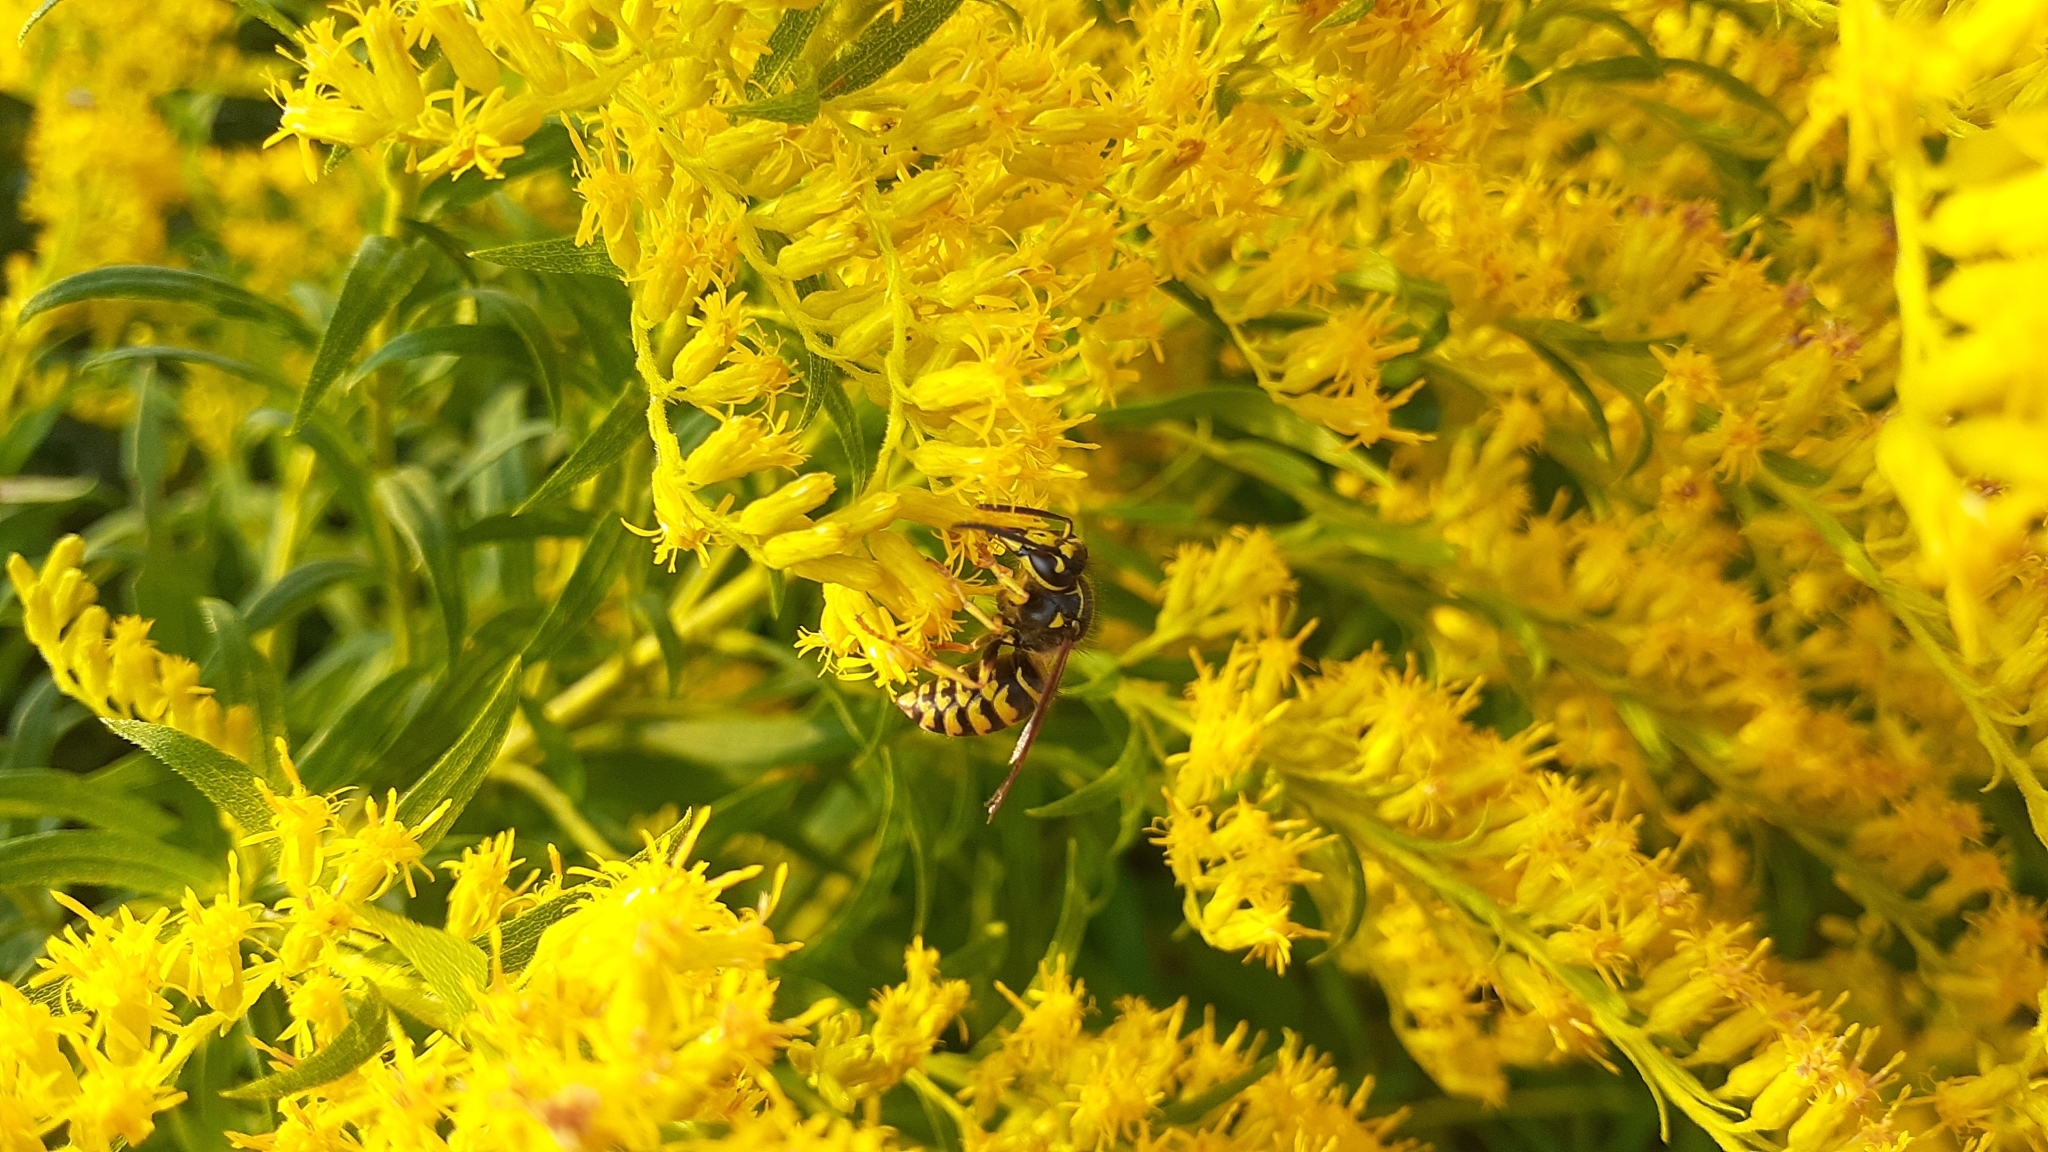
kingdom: Animalia
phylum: Arthropoda
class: Insecta
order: Hymenoptera
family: Vespidae
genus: Dolichovespula
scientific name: Dolichovespula arenaria
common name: Aerial yellowjacket
